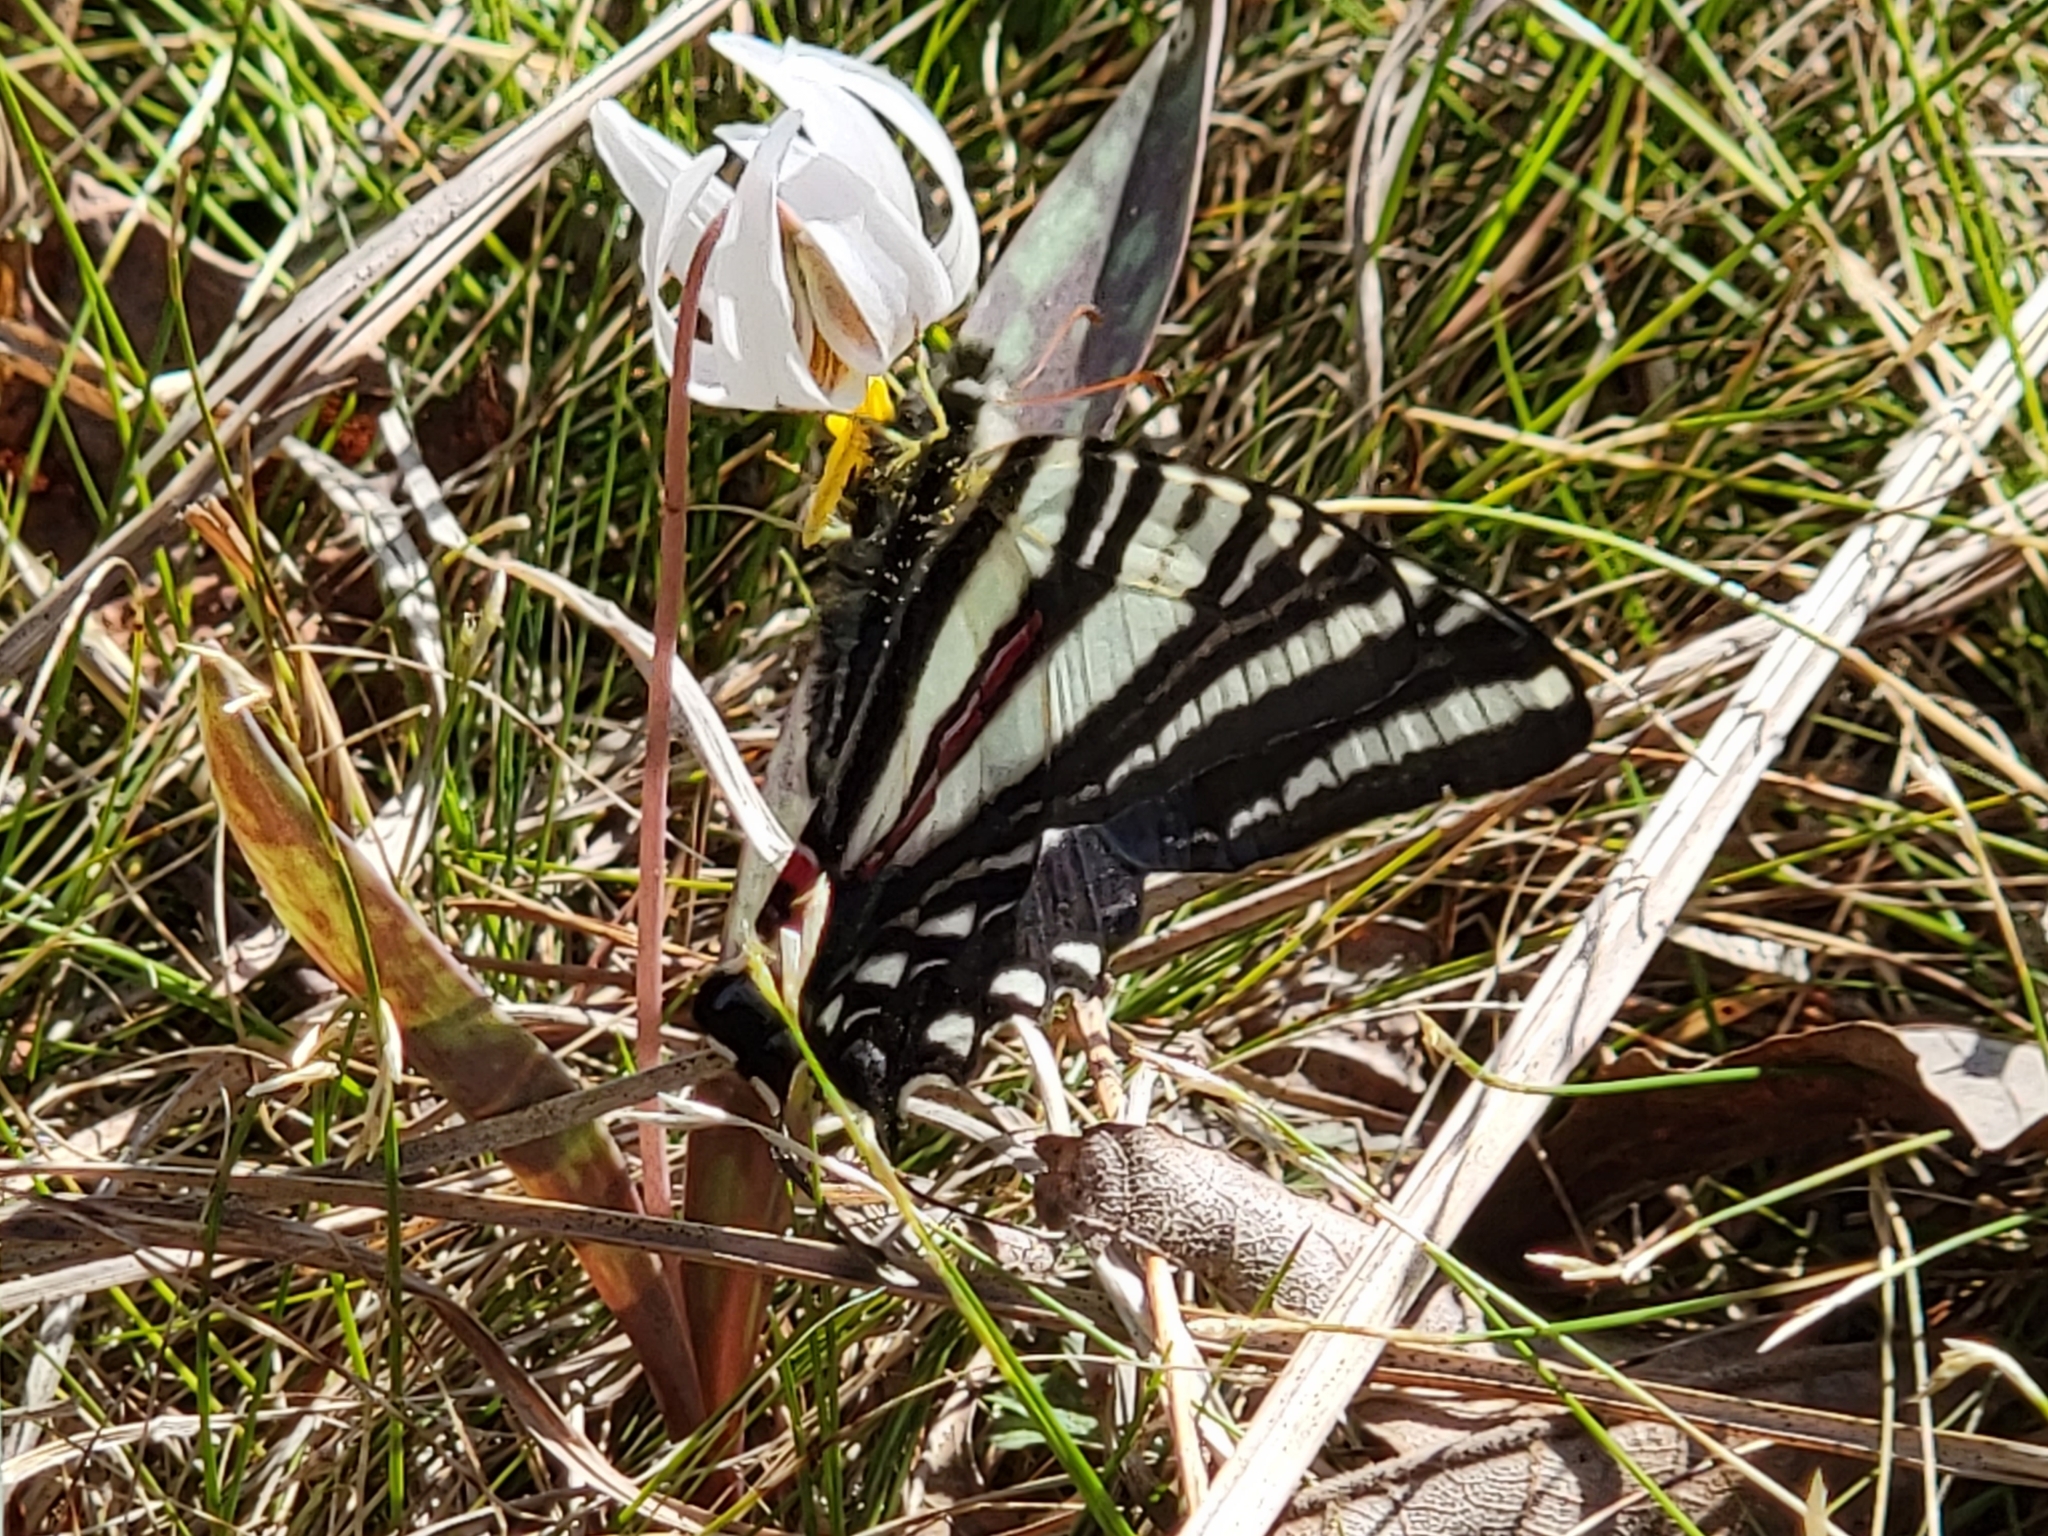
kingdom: Animalia
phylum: Arthropoda
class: Insecta
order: Lepidoptera
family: Papilionidae
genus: Protographium
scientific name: Protographium marcellus
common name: Zebra swallowtail
